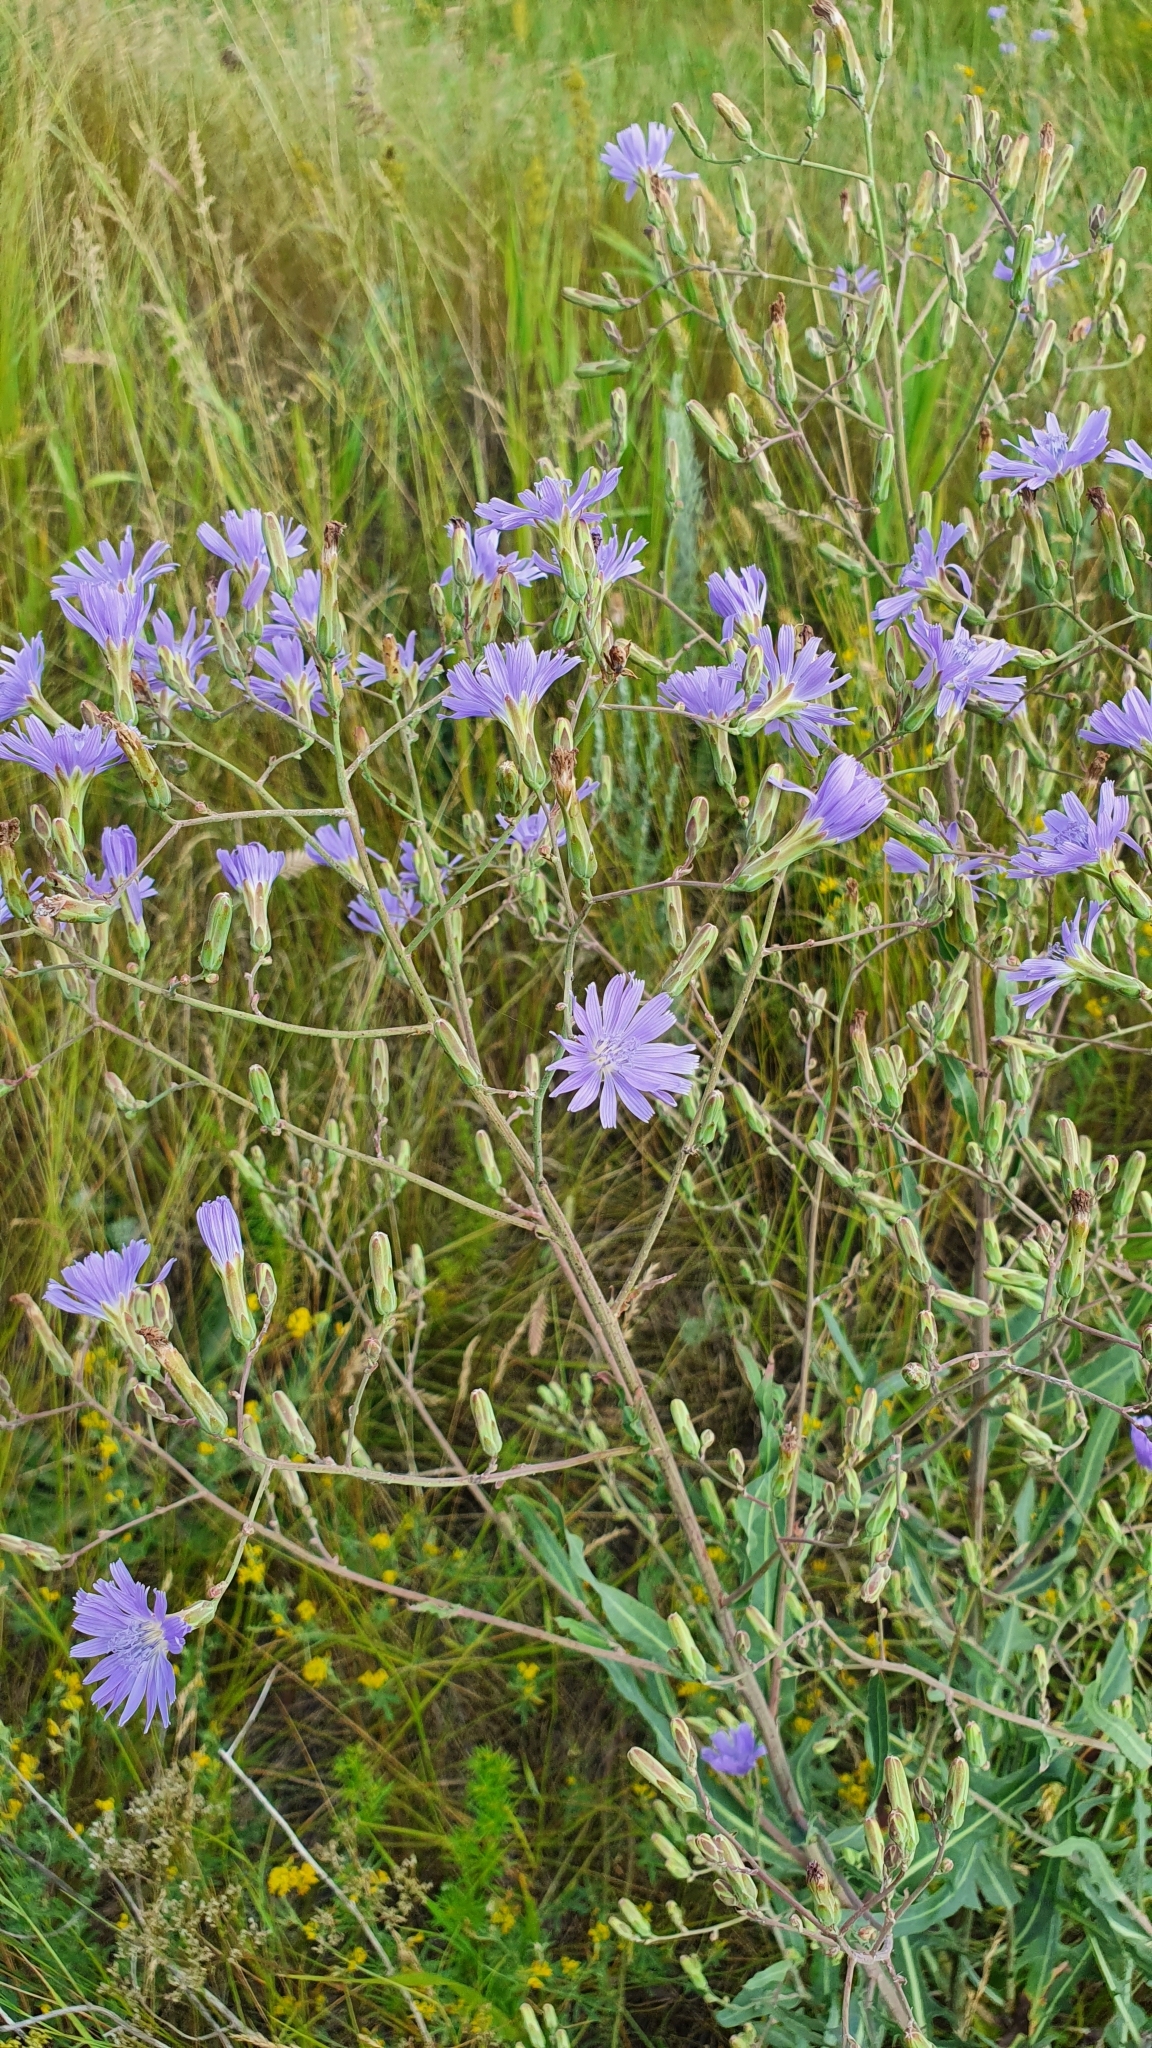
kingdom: Plantae
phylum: Tracheophyta
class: Magnoliopsida
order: Asterales
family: Asteraceae
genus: Lactuca
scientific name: Lactuca tatarica
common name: Blue lettuce
